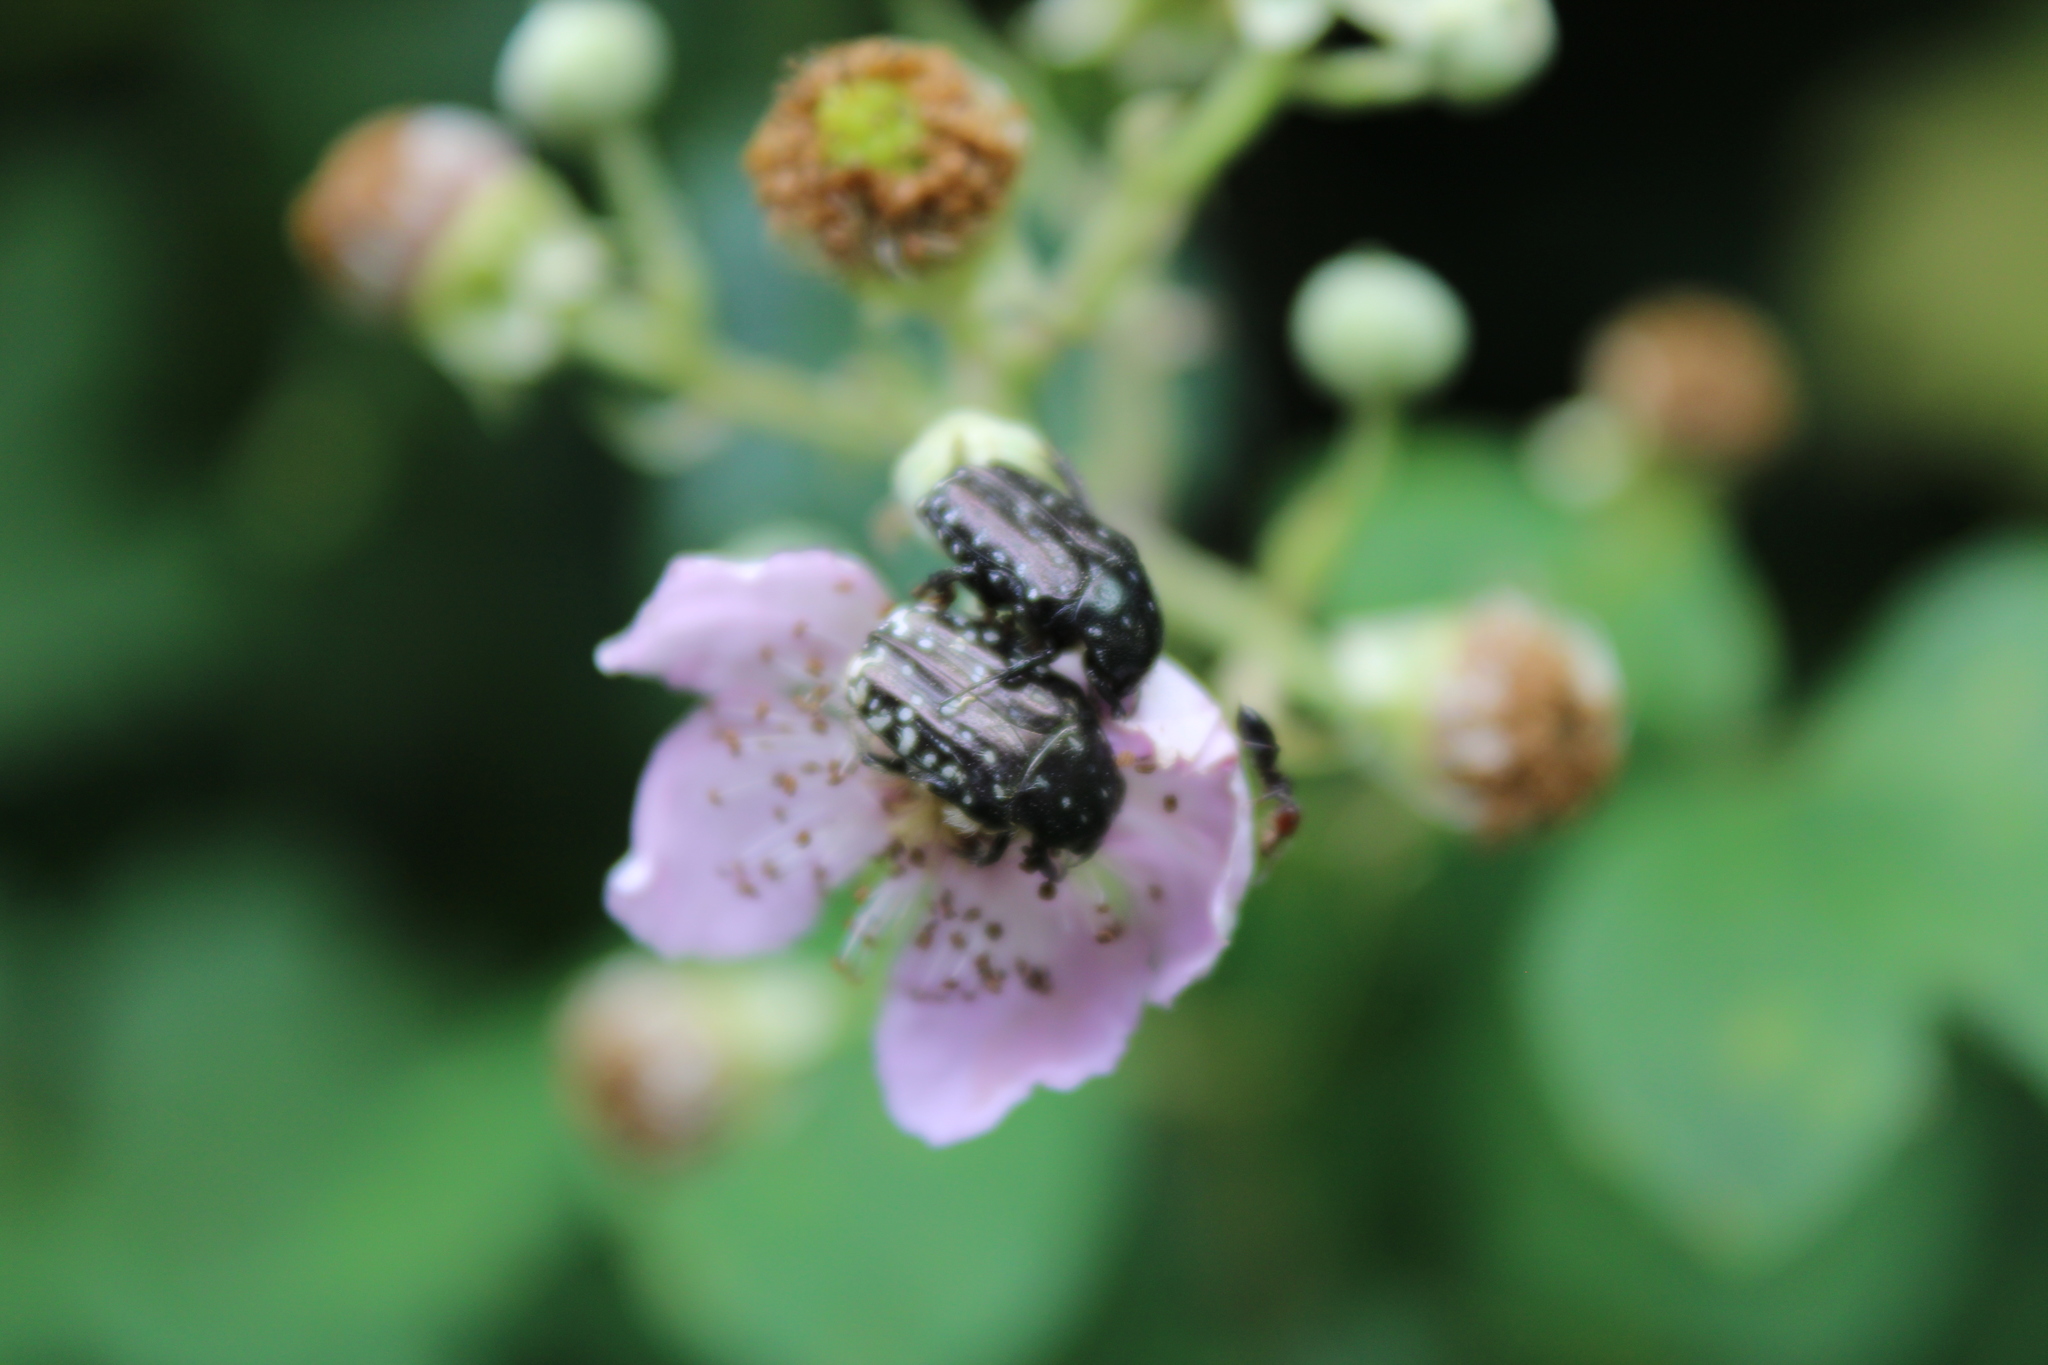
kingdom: Animalia
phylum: Arthropoda
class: Insecta
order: Coleoptera
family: Scarabaeidae
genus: Oxythyrea
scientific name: Oxythyrea funesta
